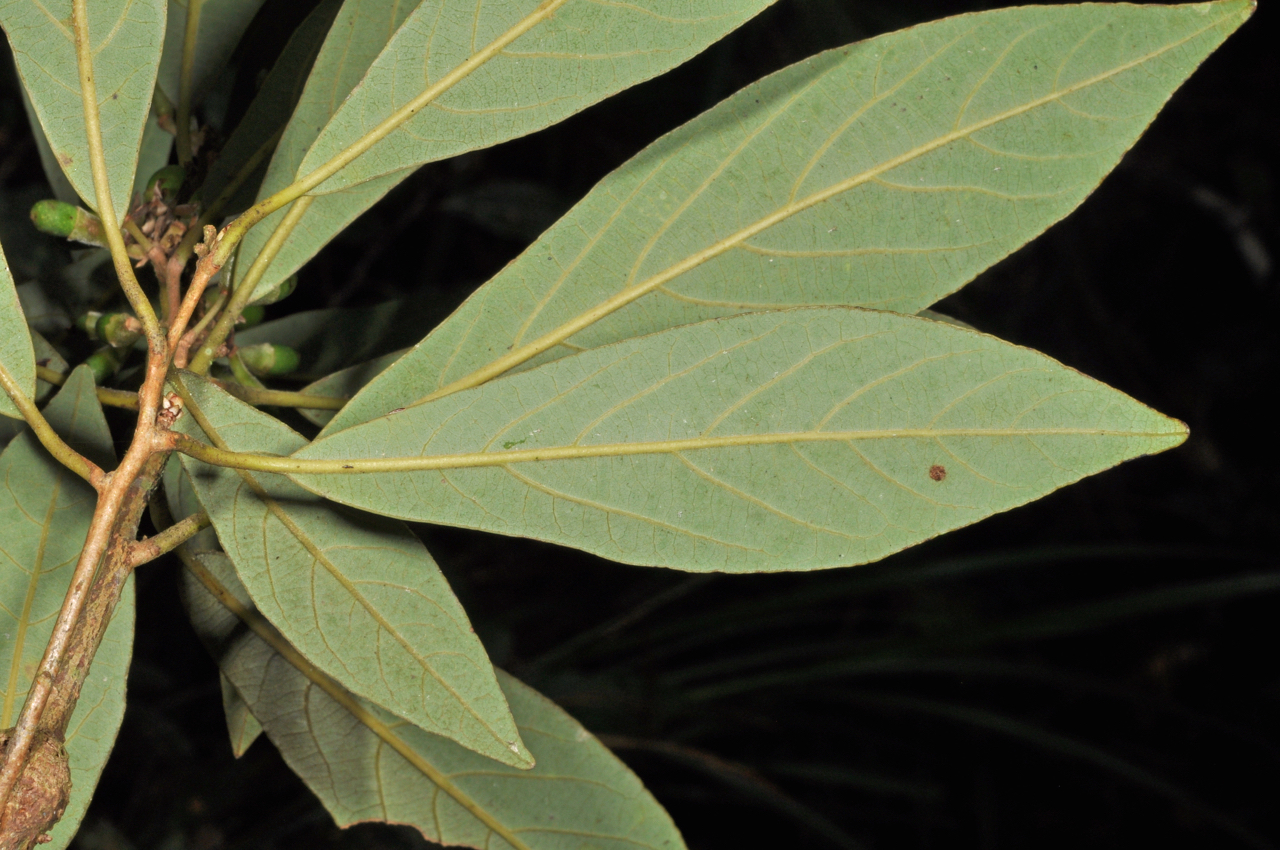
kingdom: Plantae
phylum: Tracheophyta
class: Magnoliopsida
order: Laurales
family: Lauraceae
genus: Litsea
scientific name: Litsea hypophaea
